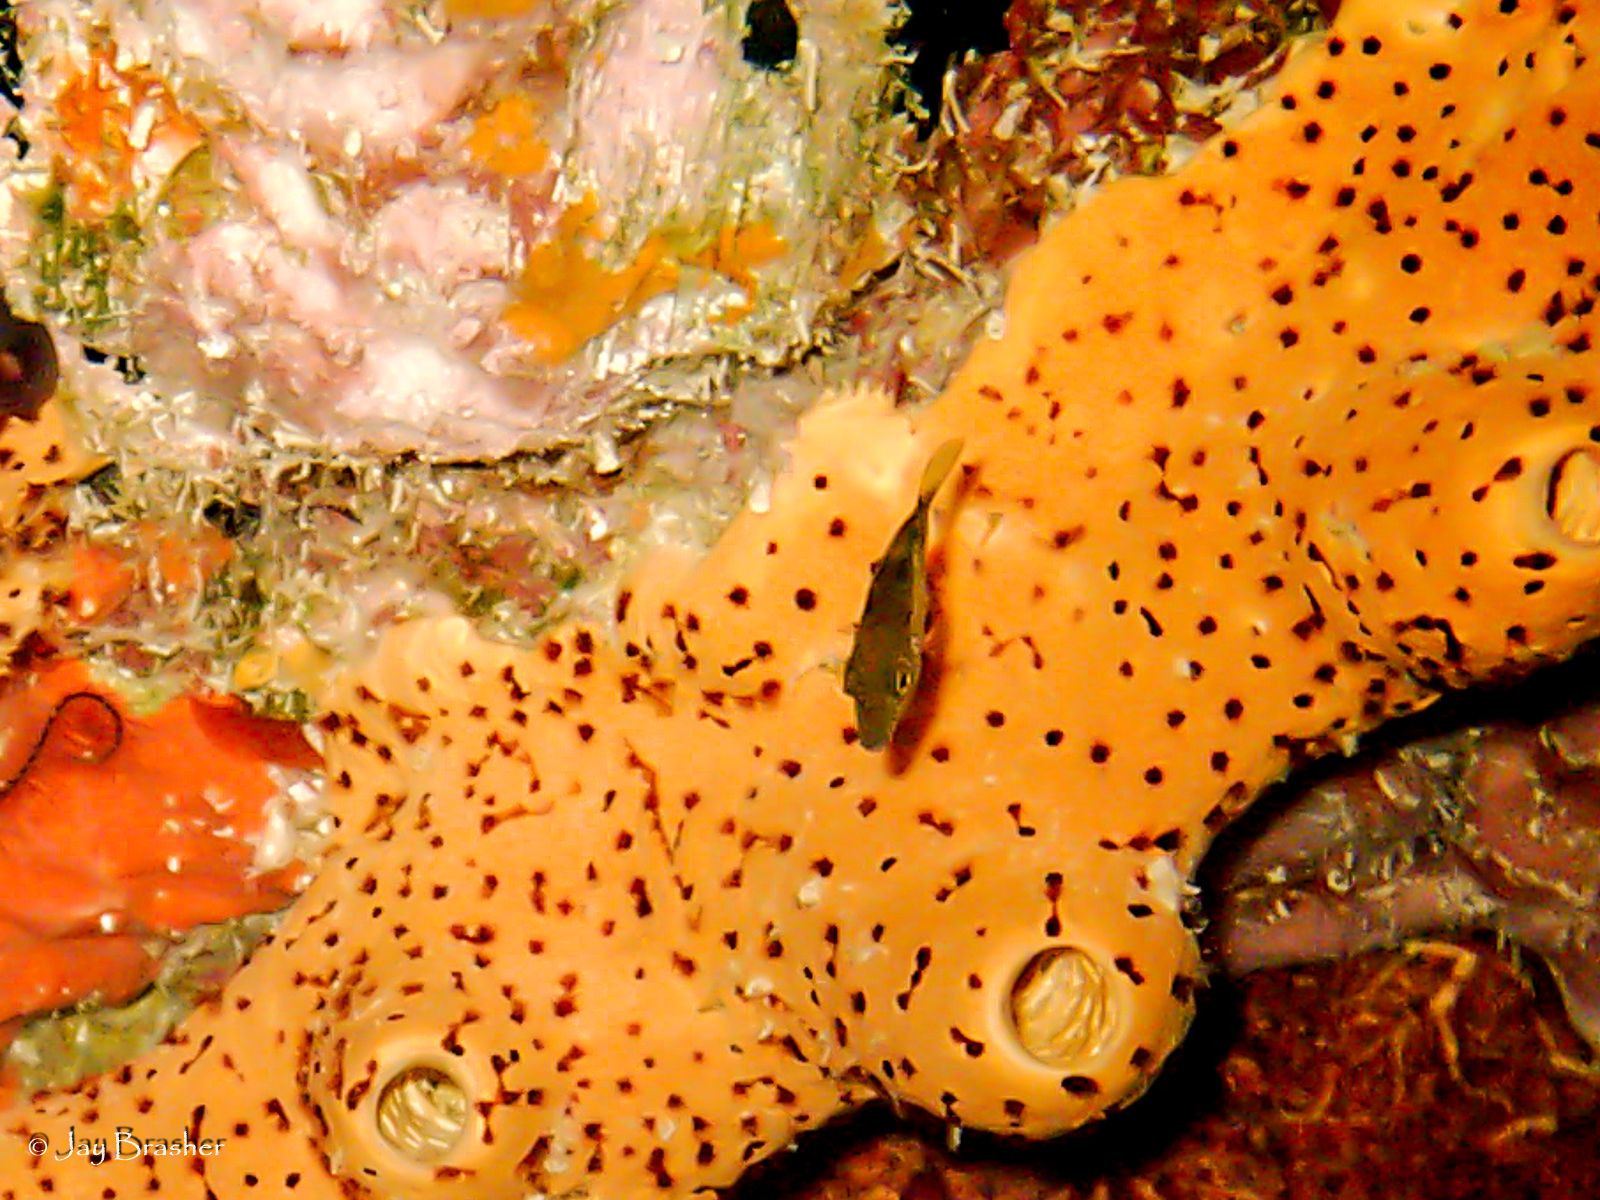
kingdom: Animalia
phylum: Chordata
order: Tetraodontiformes
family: Tetraodontidae
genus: Canthigaster
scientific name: Canthigaster rostrata
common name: Caribbean sharpnose-puffer
